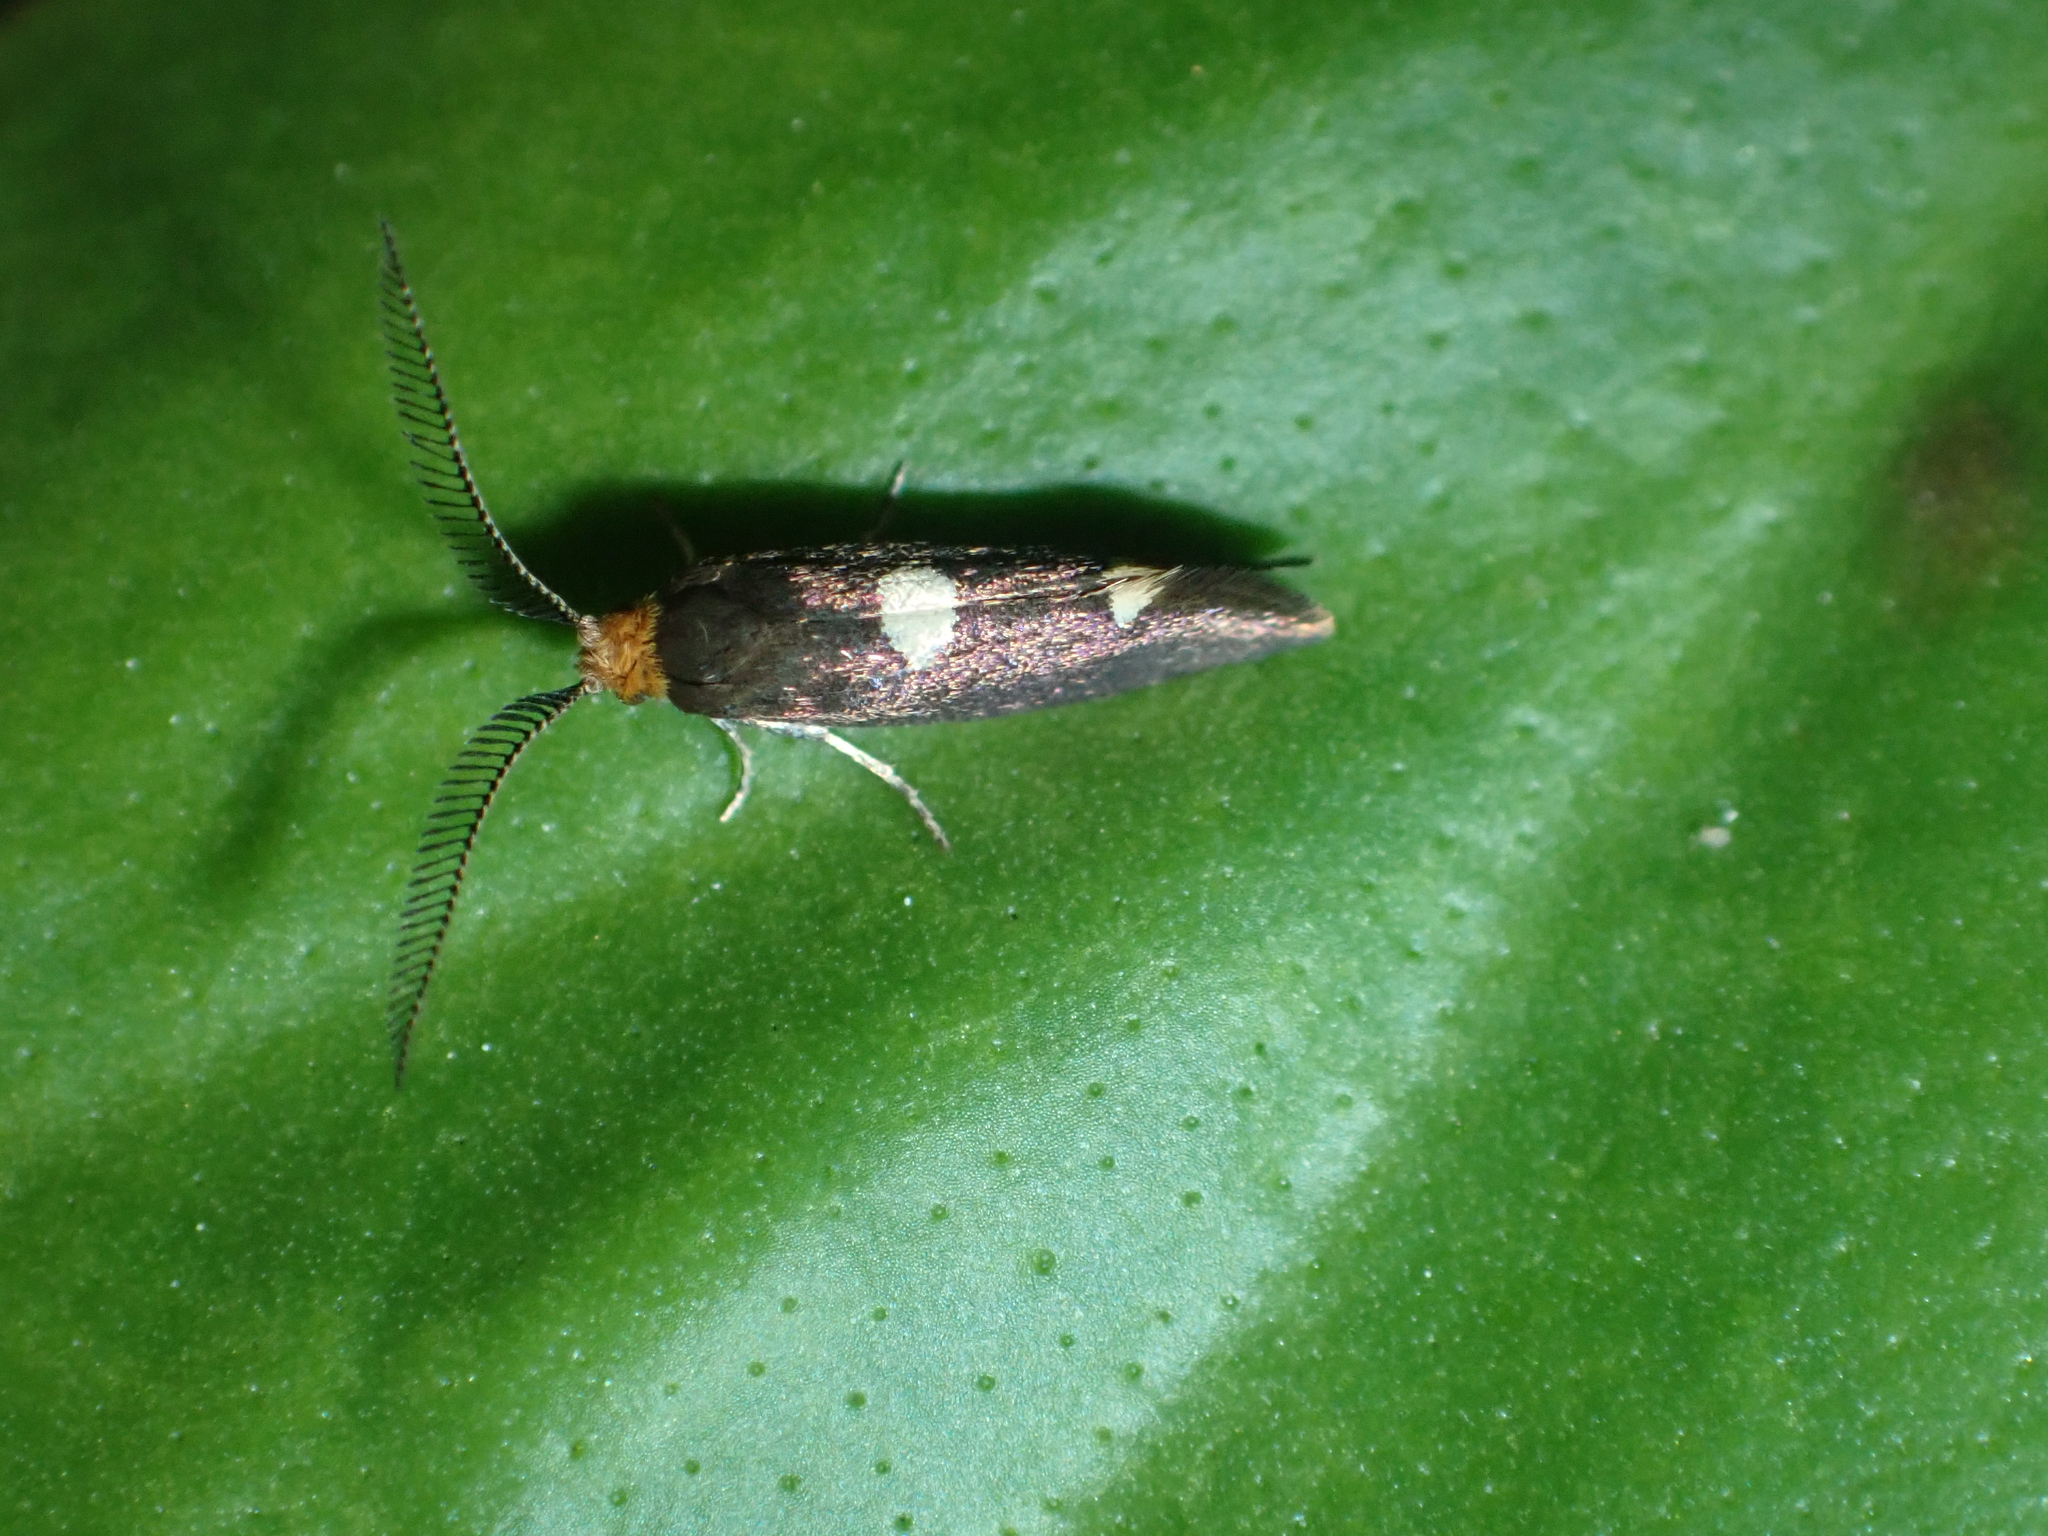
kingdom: Animalia
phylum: Arthropoda
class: Insecta
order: Lepidoptera
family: Incurvariidae
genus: Incurvaria
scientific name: Incurvaria masculella
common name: Feathered leaf-cutter
